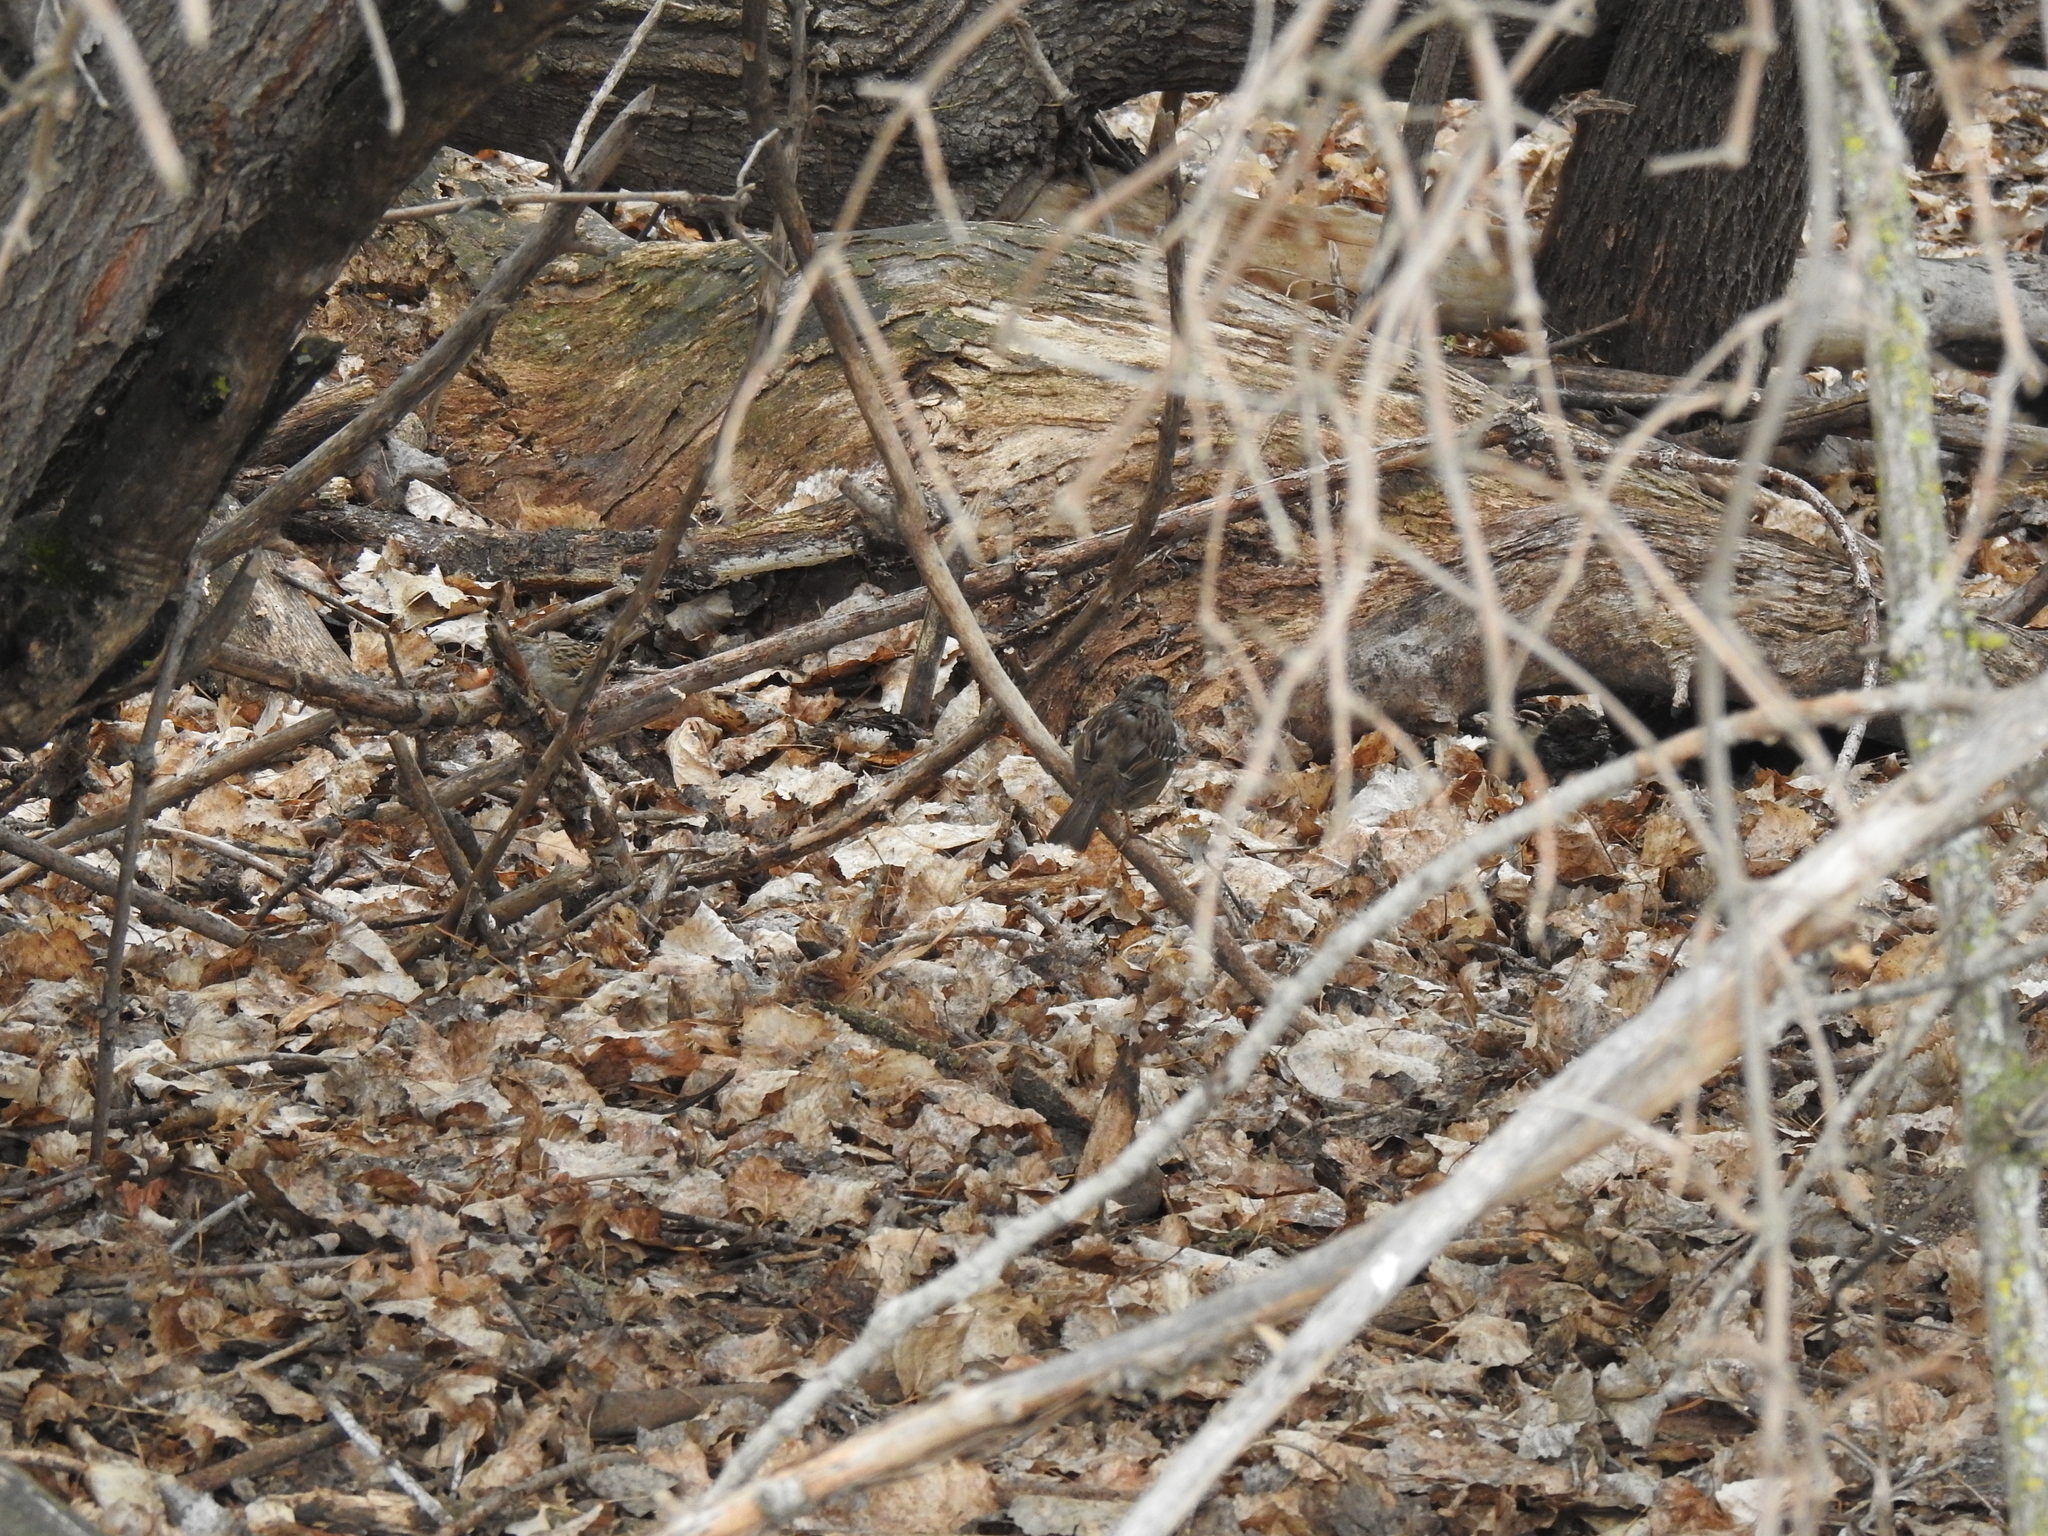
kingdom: Animalia
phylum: Chordata
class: Aves
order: Passeriformes
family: Passerellidae
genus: Zonotrichia
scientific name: Zonotrichia atricapilla
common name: Golden-crowned sparrow
